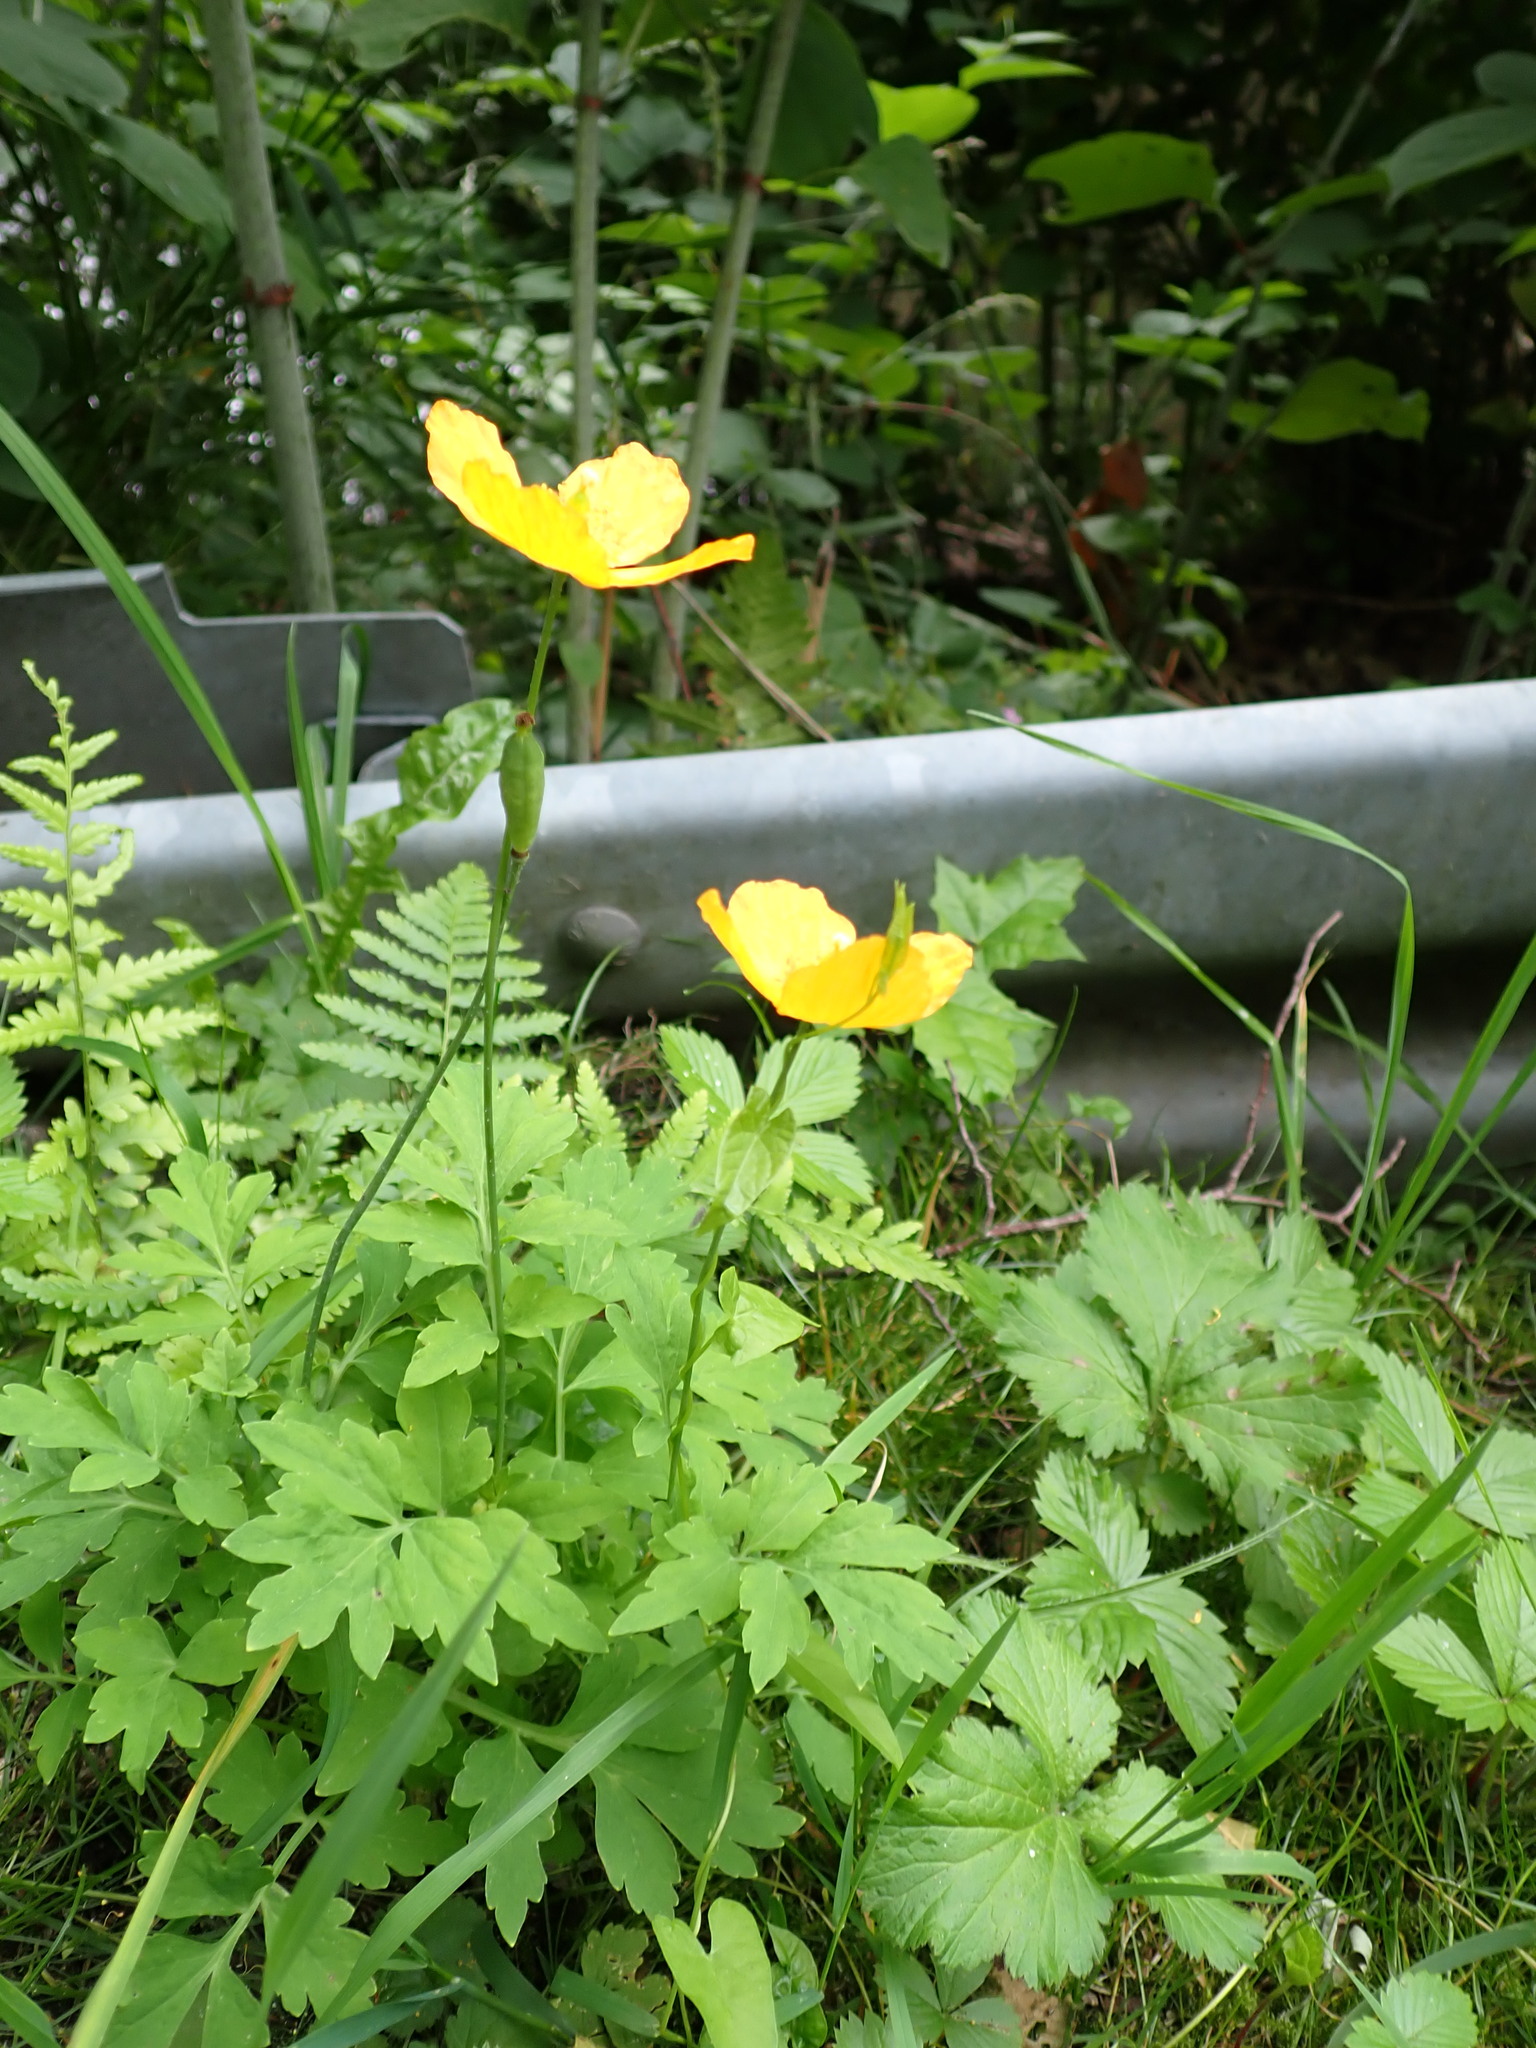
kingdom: Plantae
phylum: Tracheophyta
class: Magnoliopsida
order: Ranunculales
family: Papaveraceae
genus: Papaver
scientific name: Papaver cambricum
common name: Poppy
